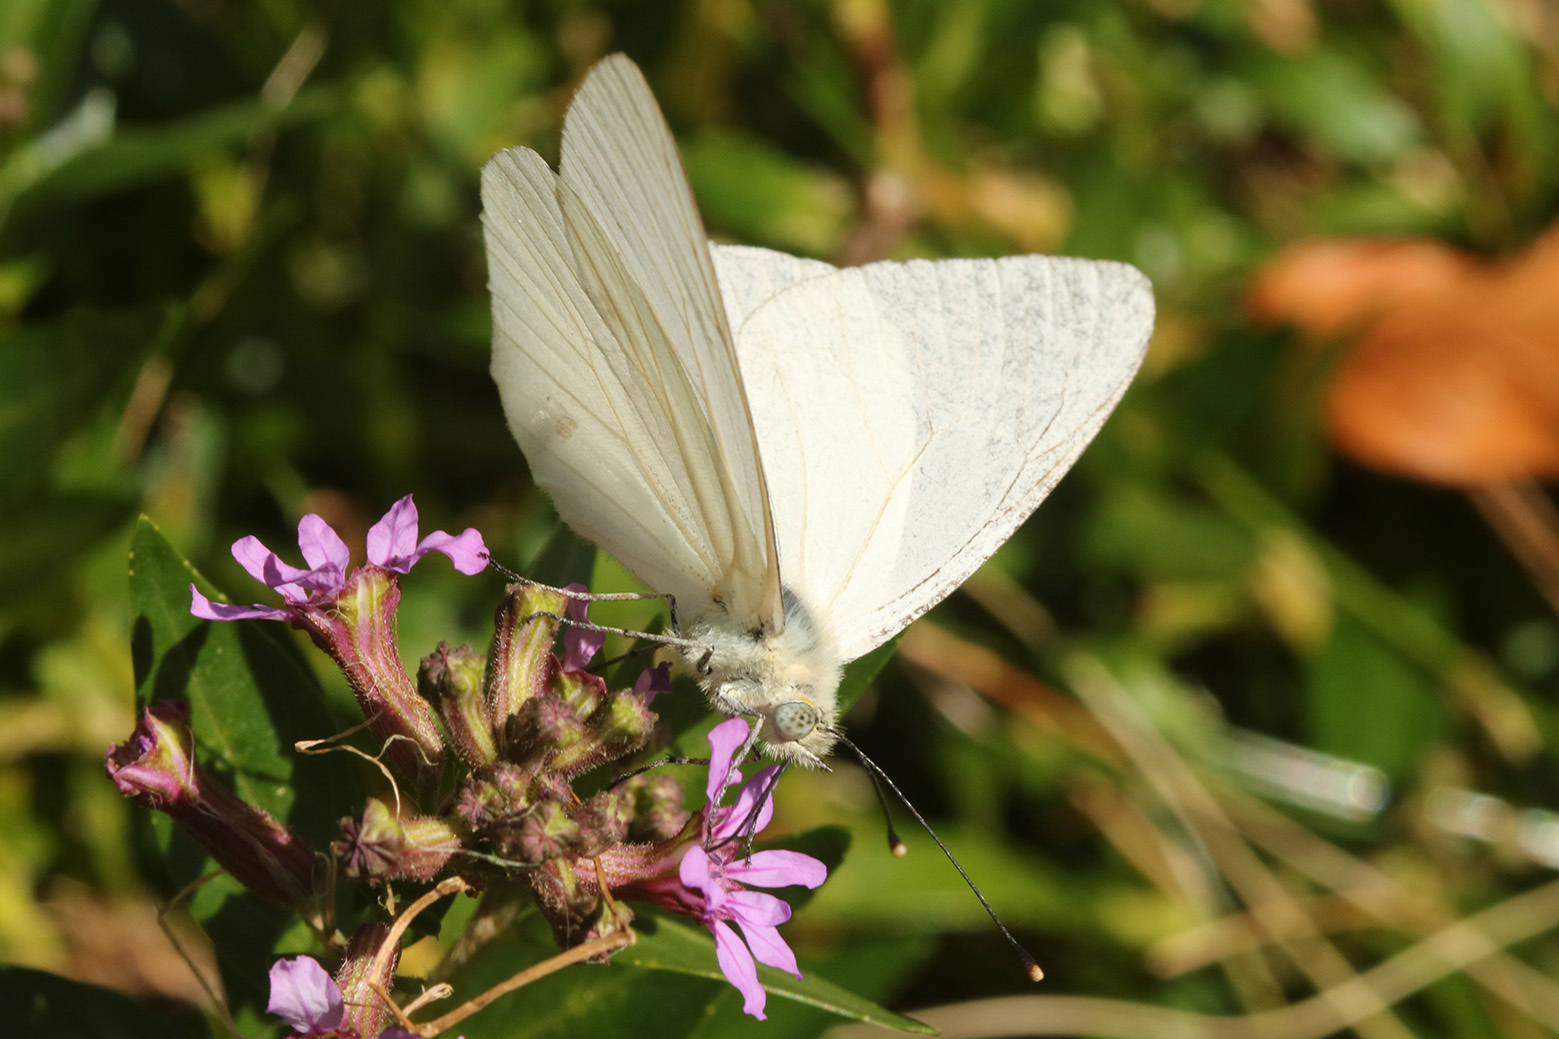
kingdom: Animalia
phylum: Arthropoda
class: Insecta
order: Lepidoptera
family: Pieridae
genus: Theochila
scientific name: Theochila maenacte
